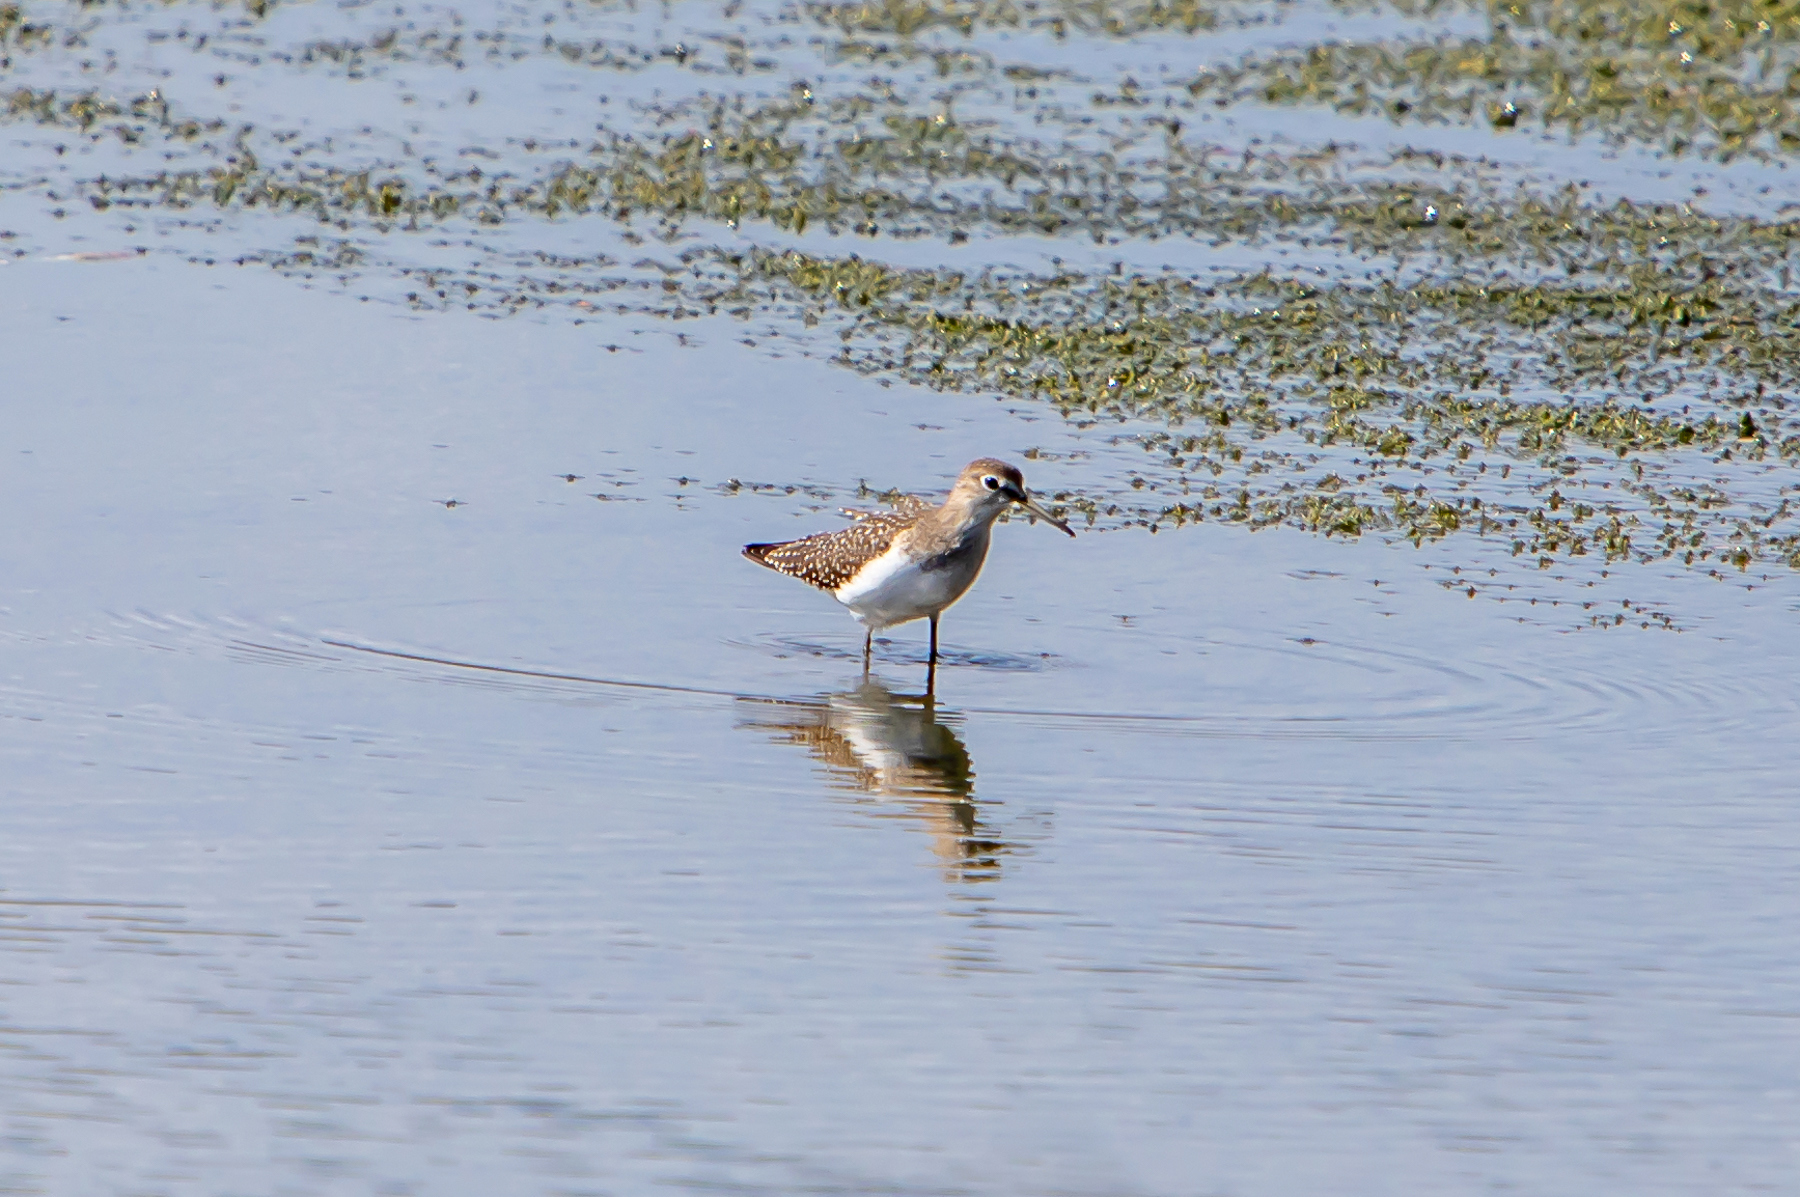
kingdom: Animalia
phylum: Chordata
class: Aves
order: Charadriiformes
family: Scolopacidae
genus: Tringa
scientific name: Tringa solitaria
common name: Solitary sandpiper
